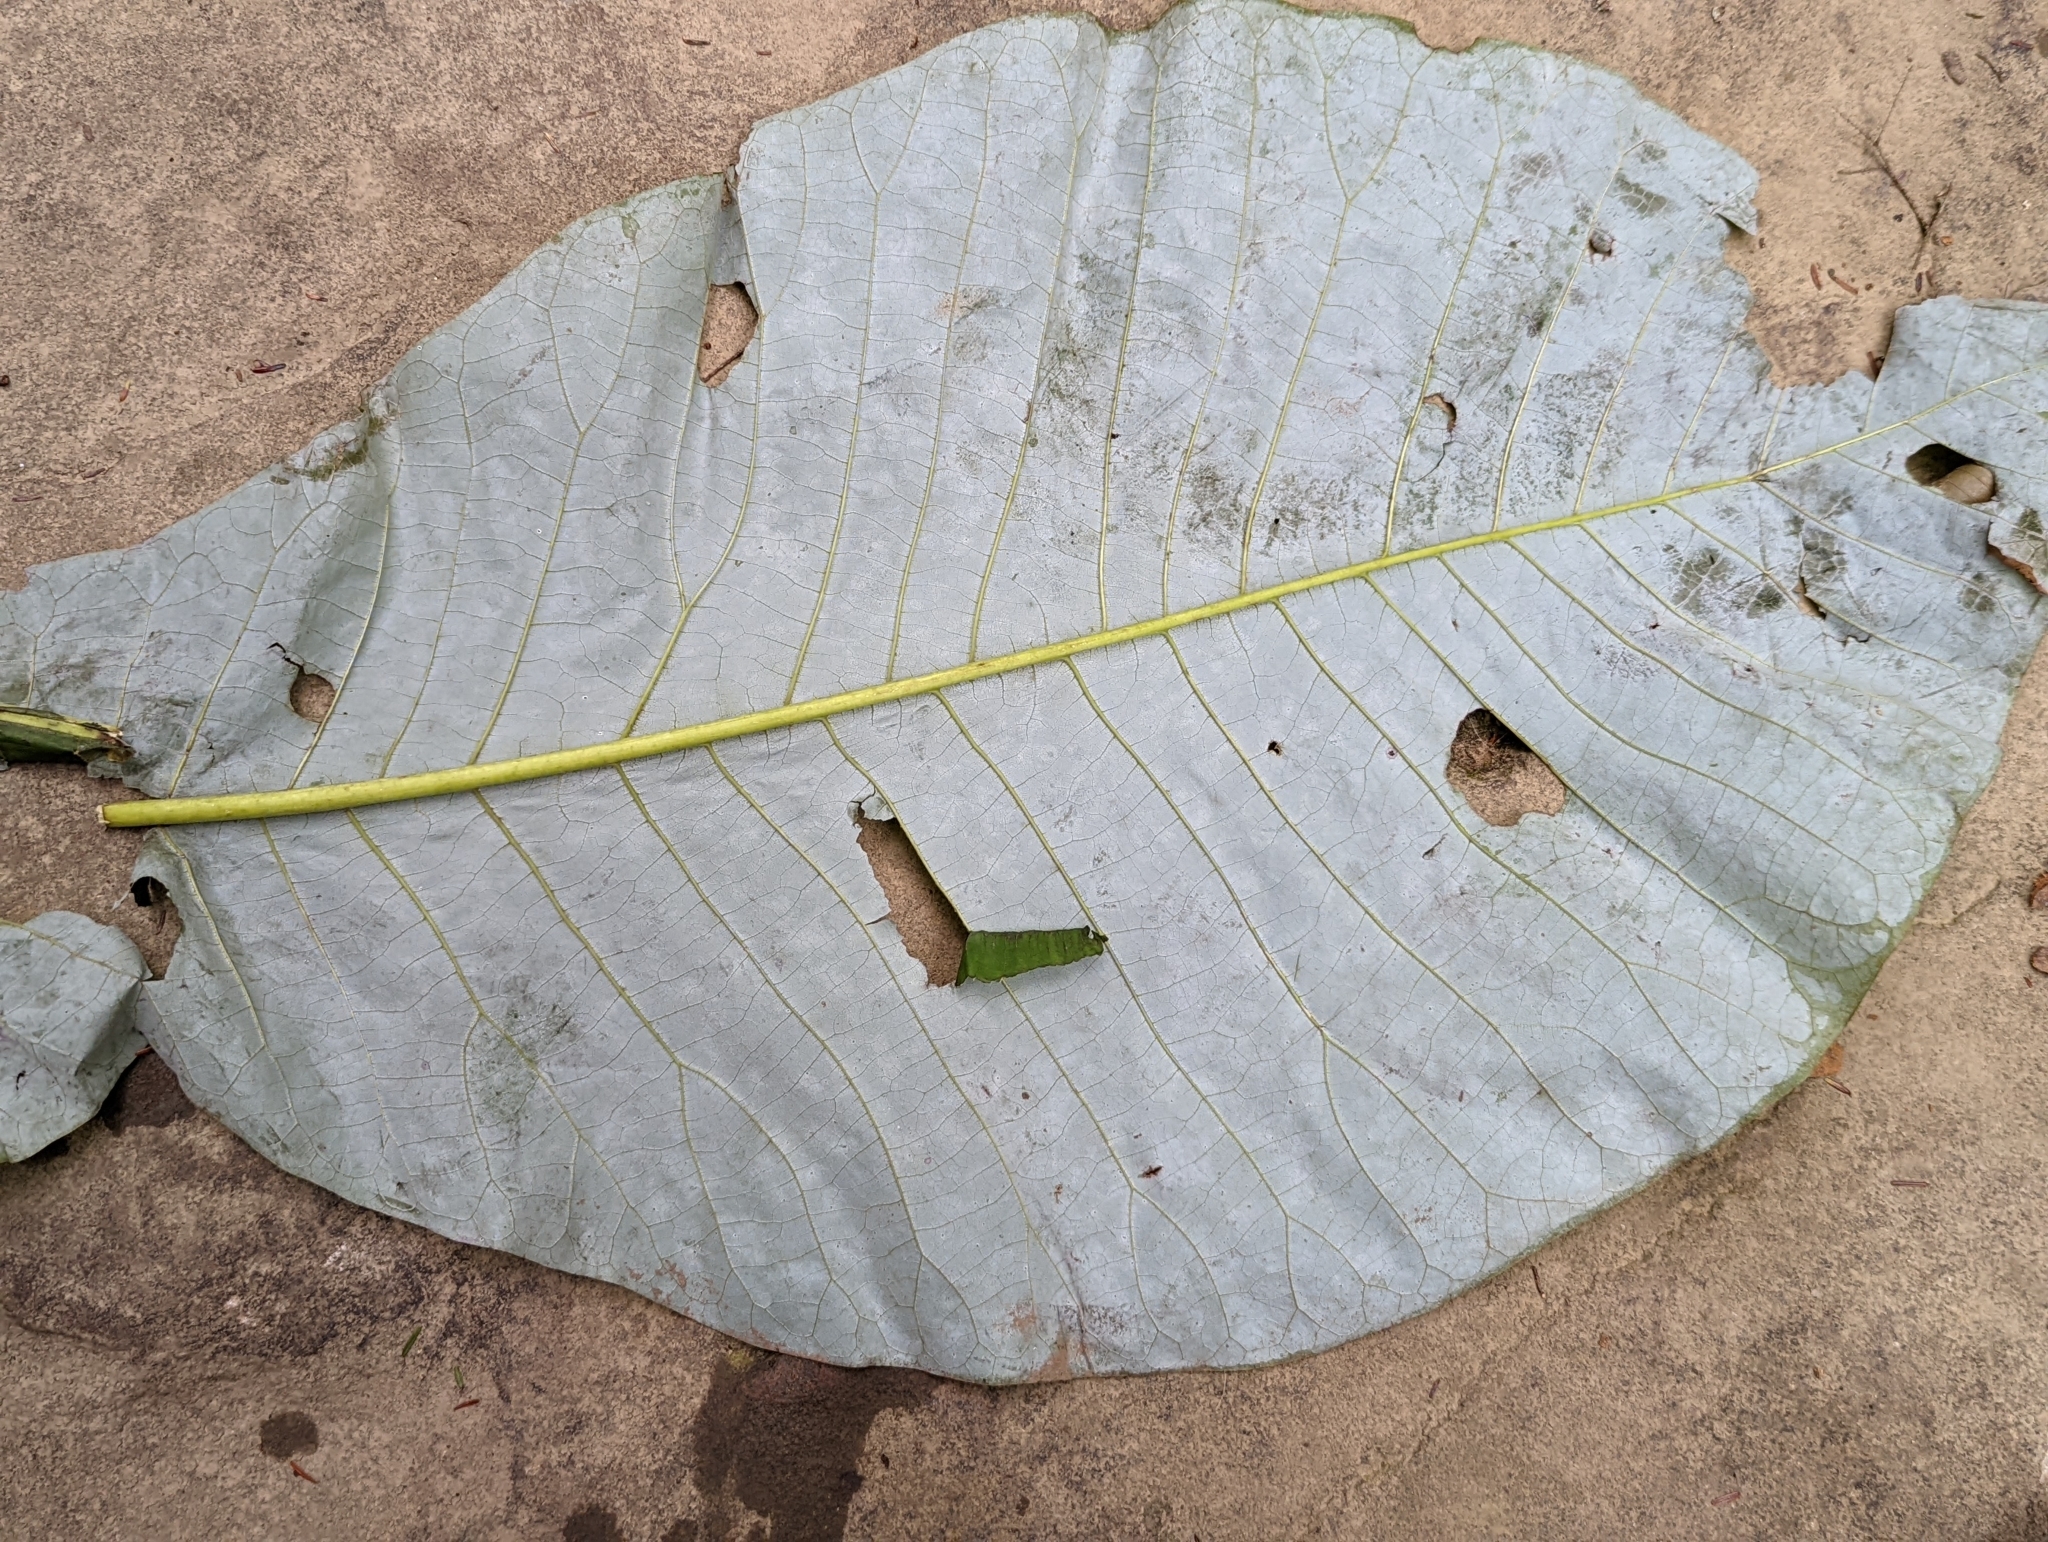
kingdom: Plantae
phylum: Tracheophyta
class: Magnoliopsida
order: Magnoliales
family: Magnoliaceae
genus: Magnolia
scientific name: Magnolia macrophylla
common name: Big-leaf magnolia
